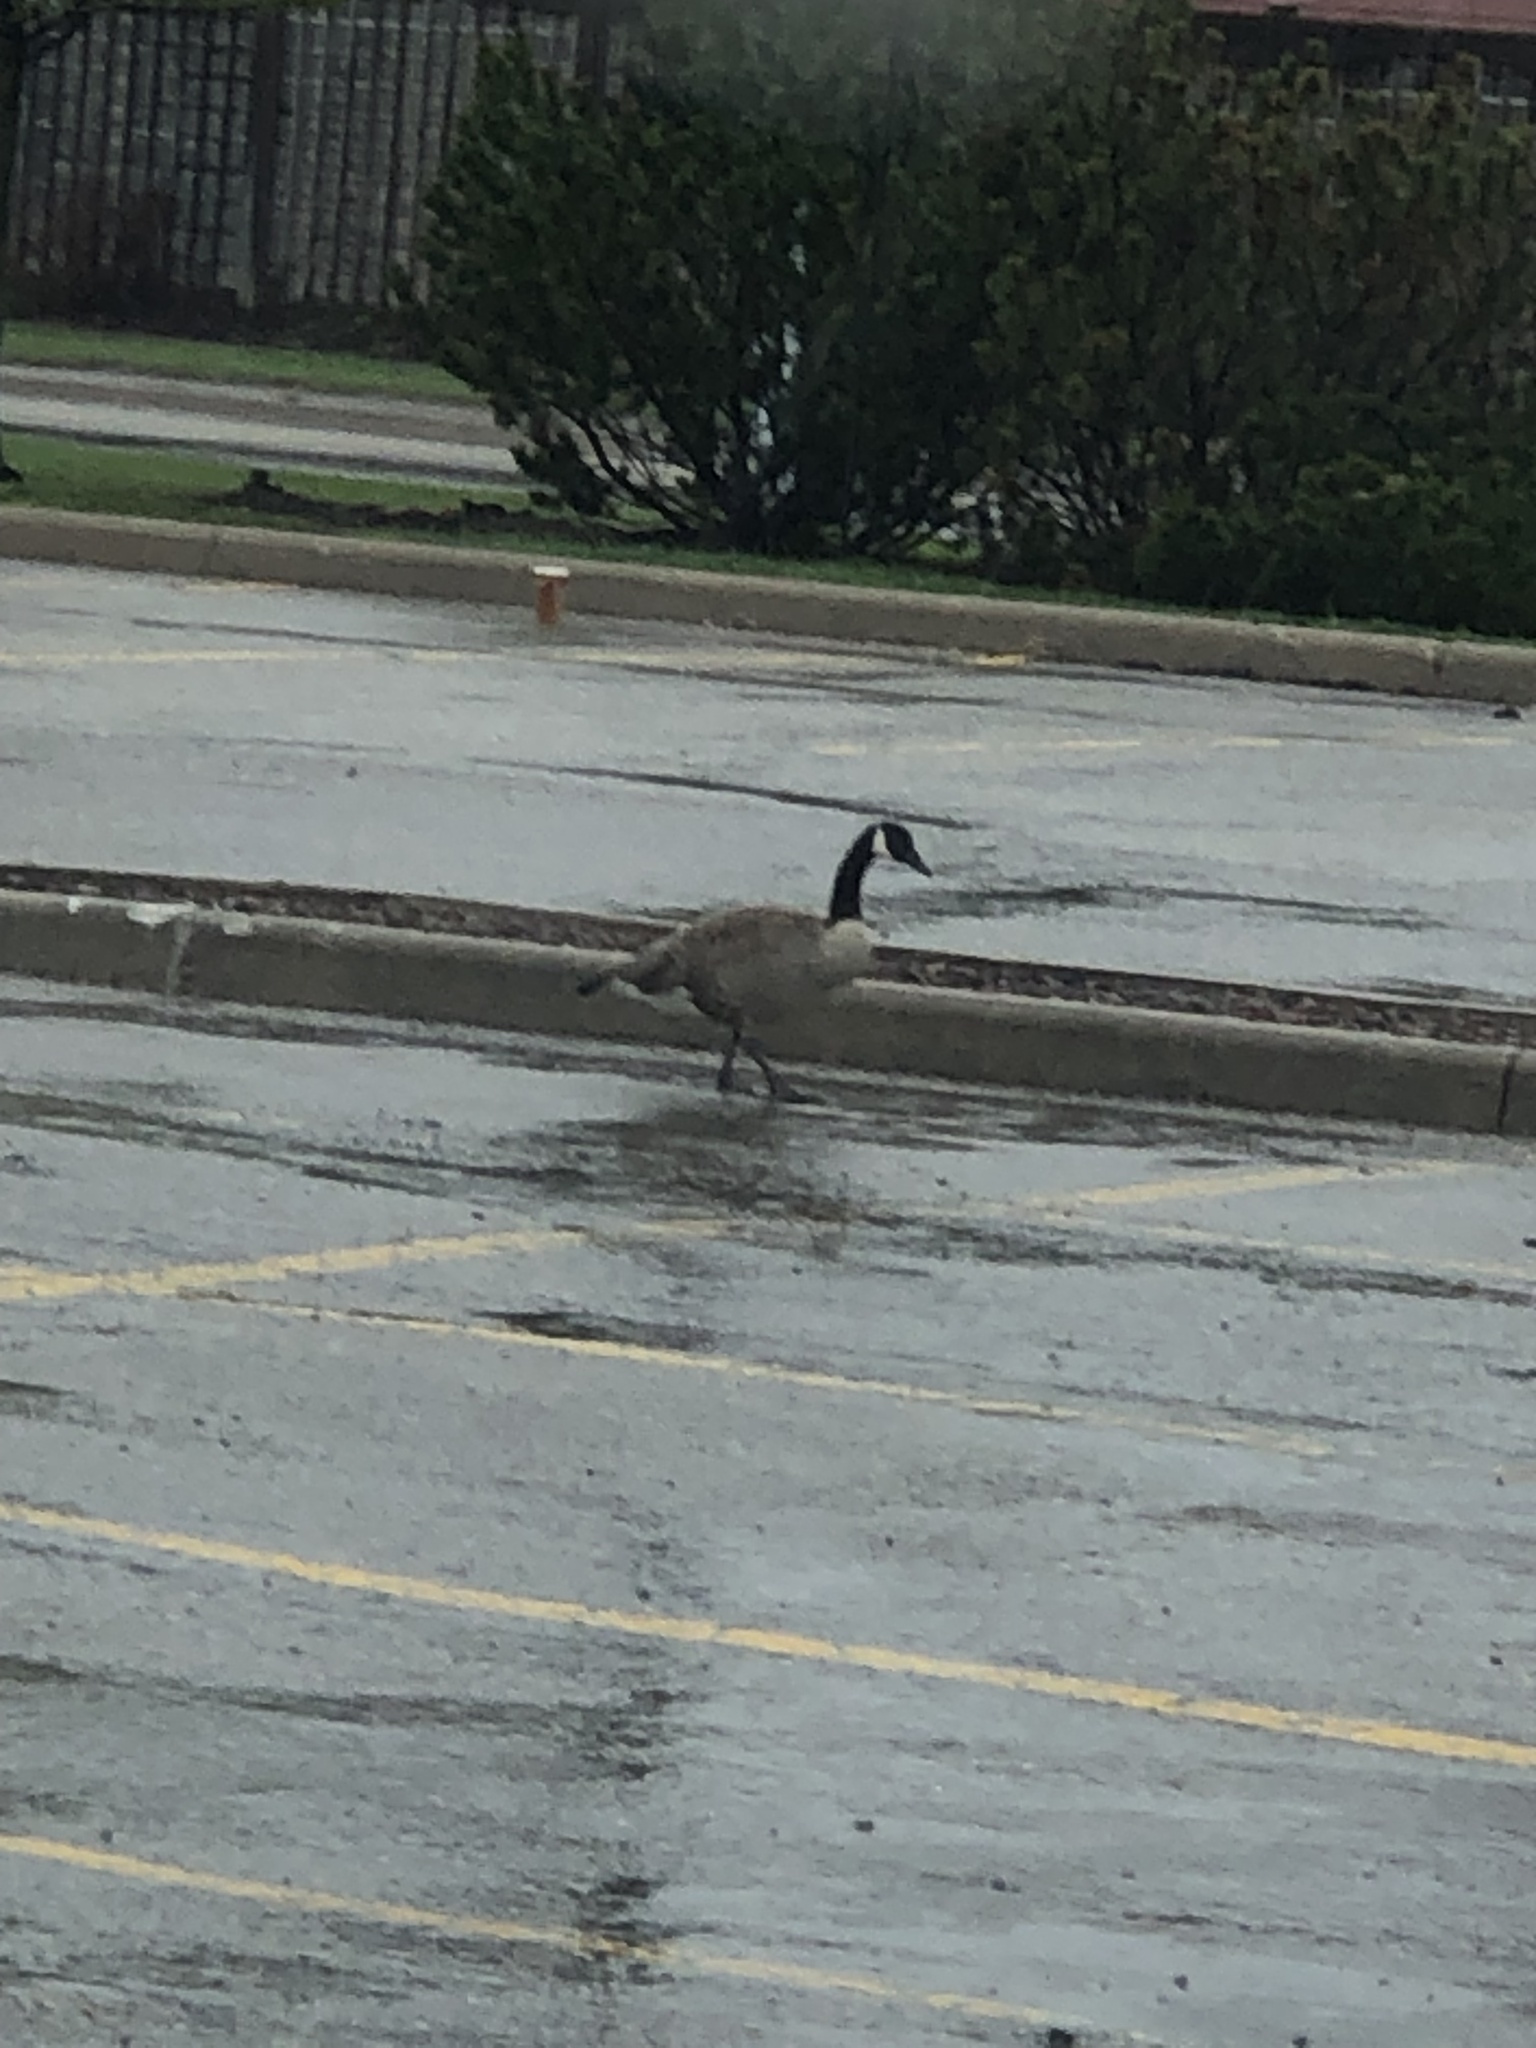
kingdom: Animalia
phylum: Chordata
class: Aves
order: Anseriformes
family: Anatidae
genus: Branta
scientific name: Branta canadensis
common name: Canada goose
